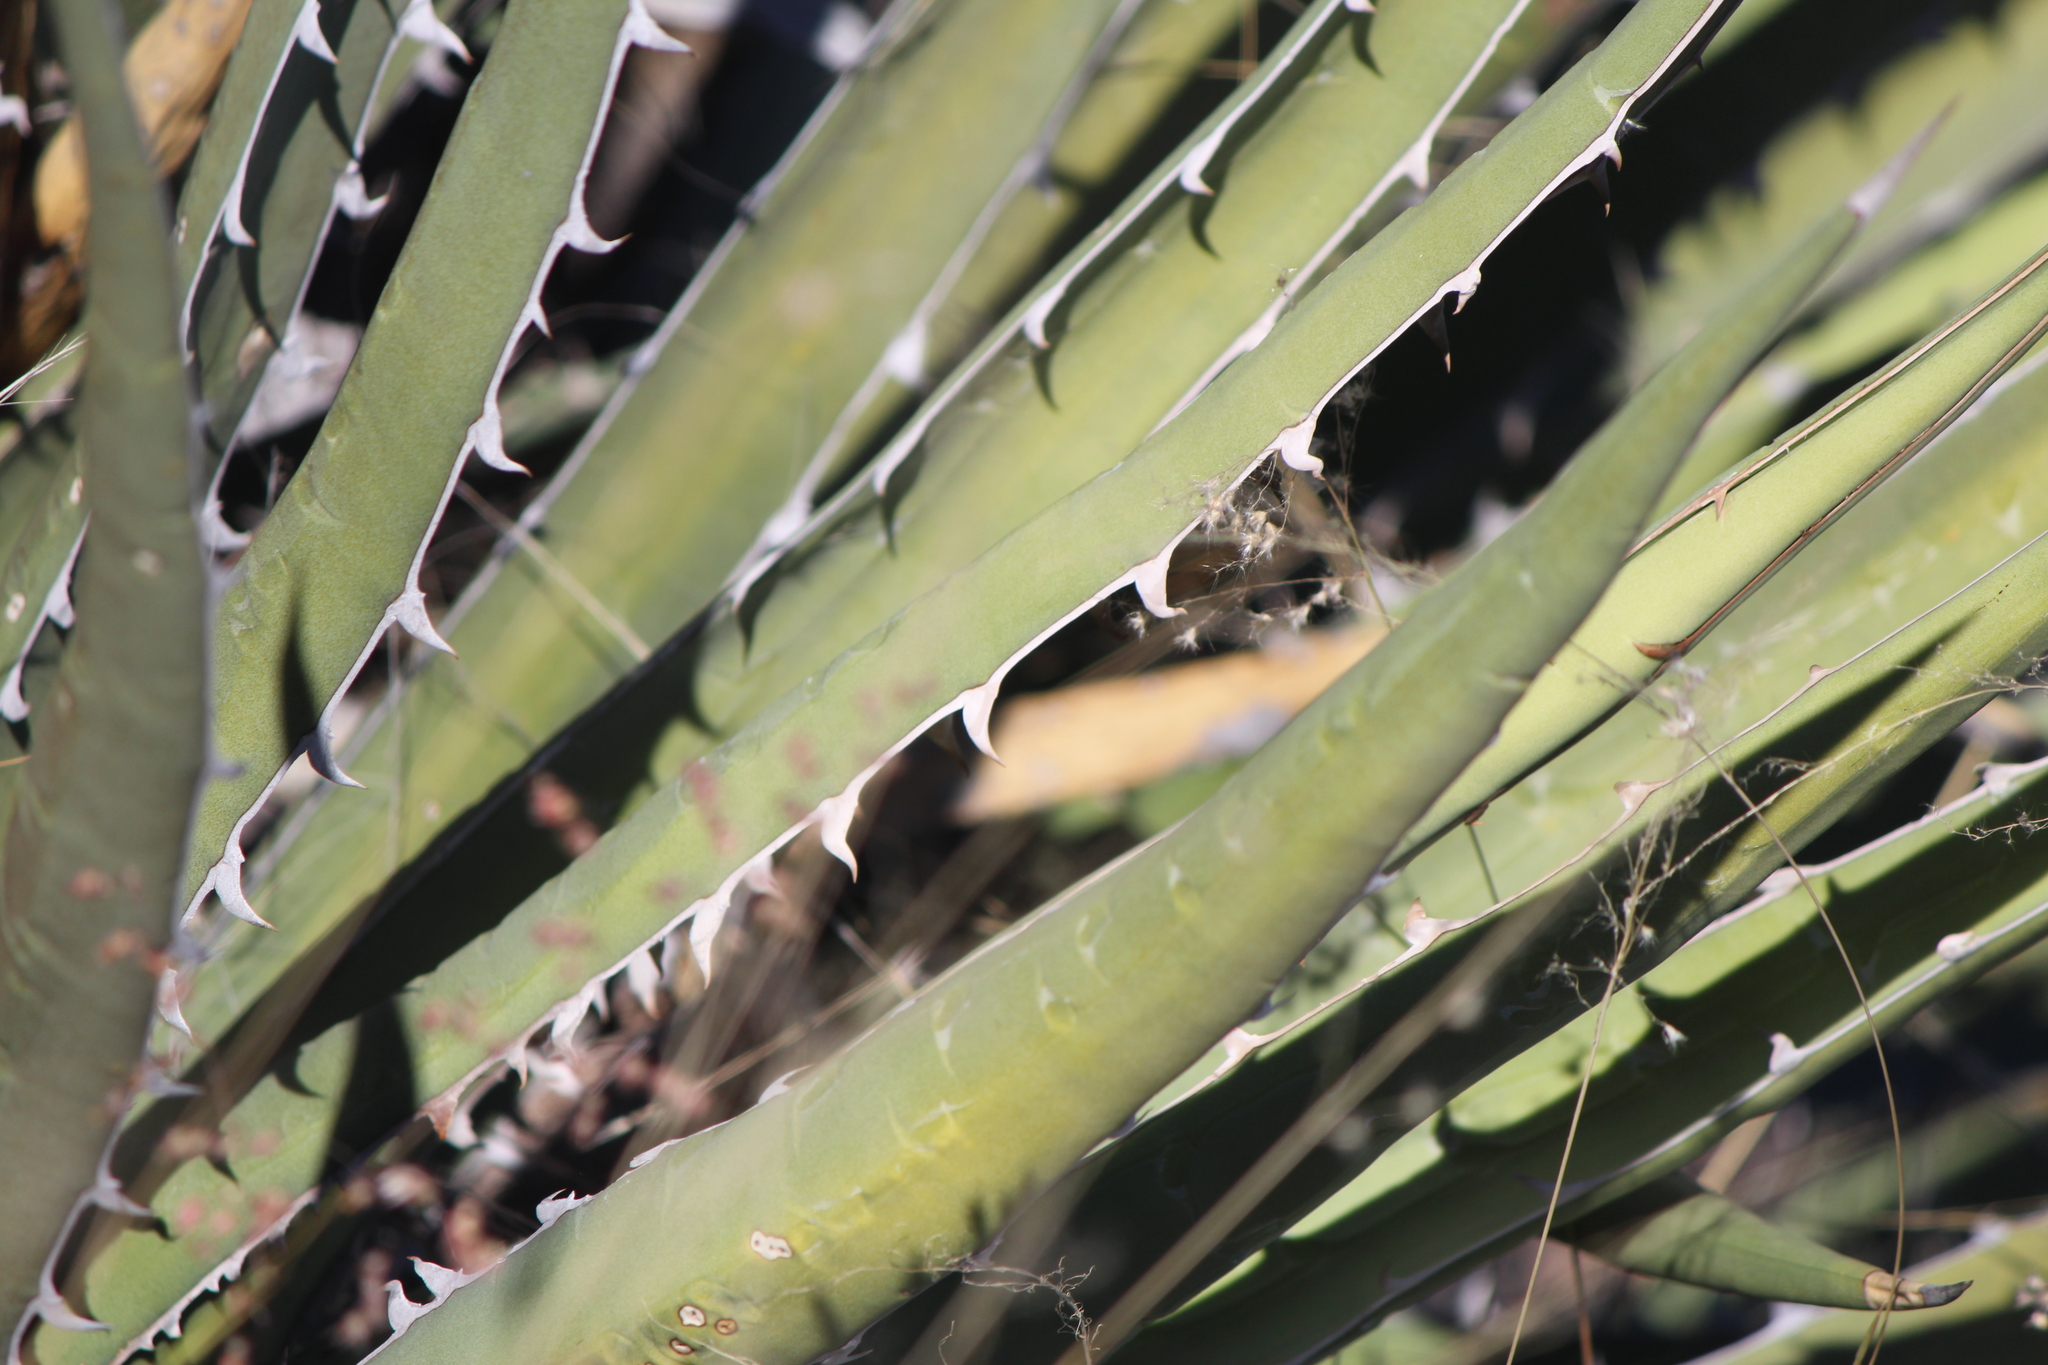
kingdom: Plantae
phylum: Tracheophyta
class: Liliopsida
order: Asparagales
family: Asparagaceae
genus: Agave
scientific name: Agave lechuguilla
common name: Lecheguilla agave
